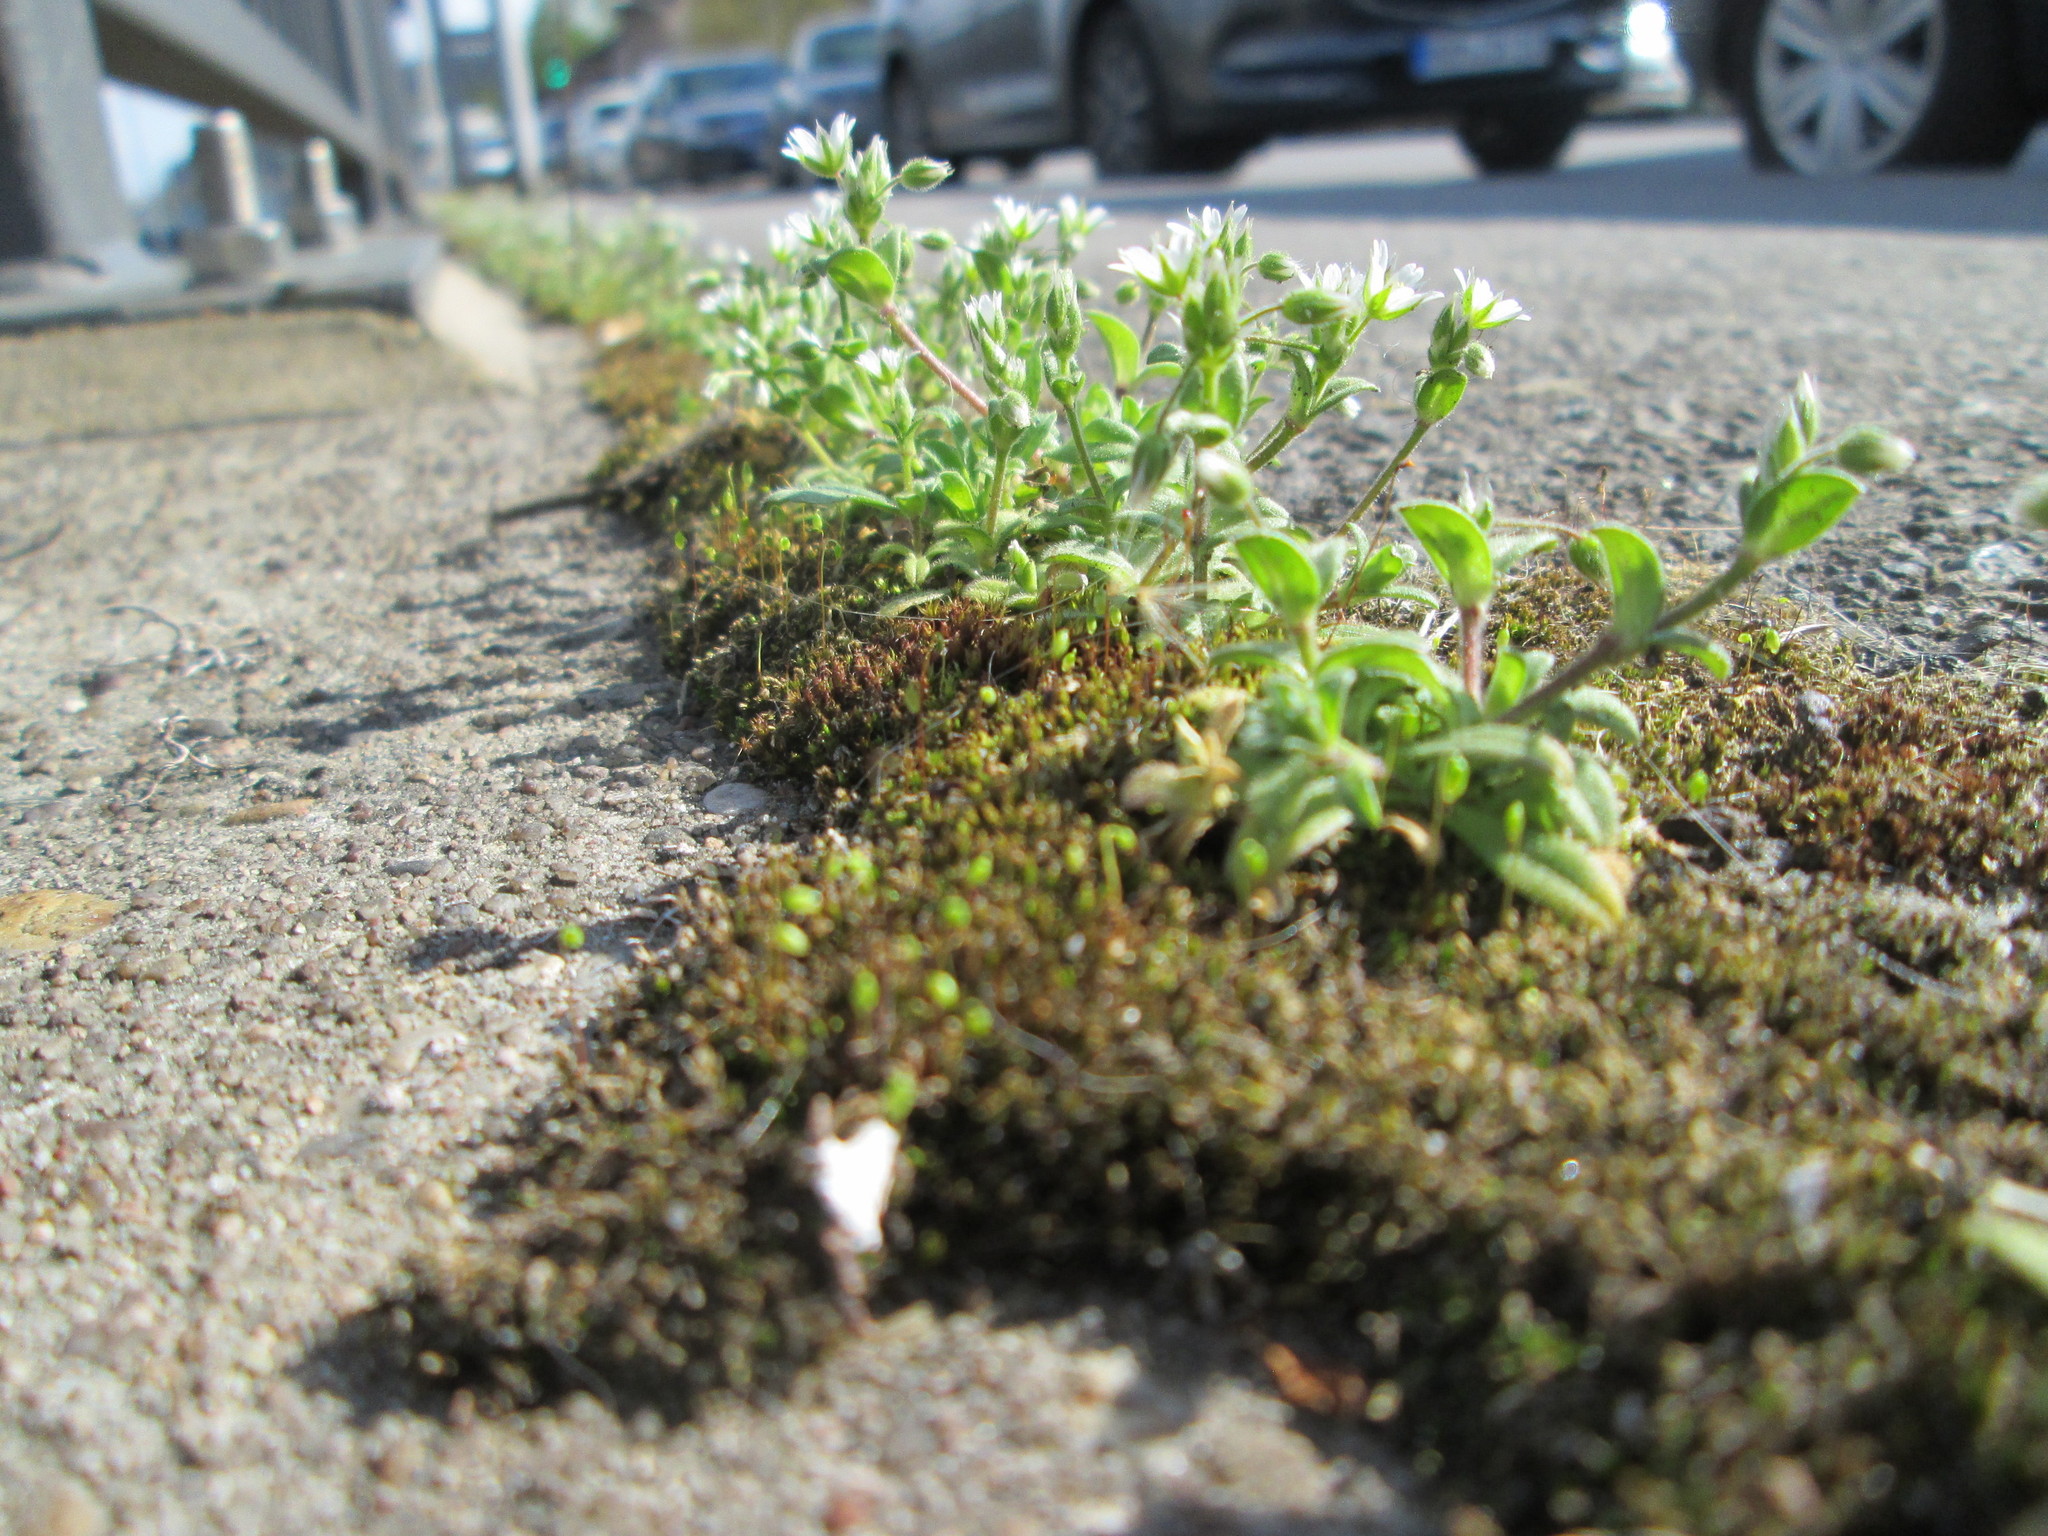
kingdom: Plantae
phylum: Tracheophyta
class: Magnoliopsida
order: Caryophyllales
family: Caryophyllaceae
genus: Cerastium
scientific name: Cerastium semidecandrum
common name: Little mouse-ear
